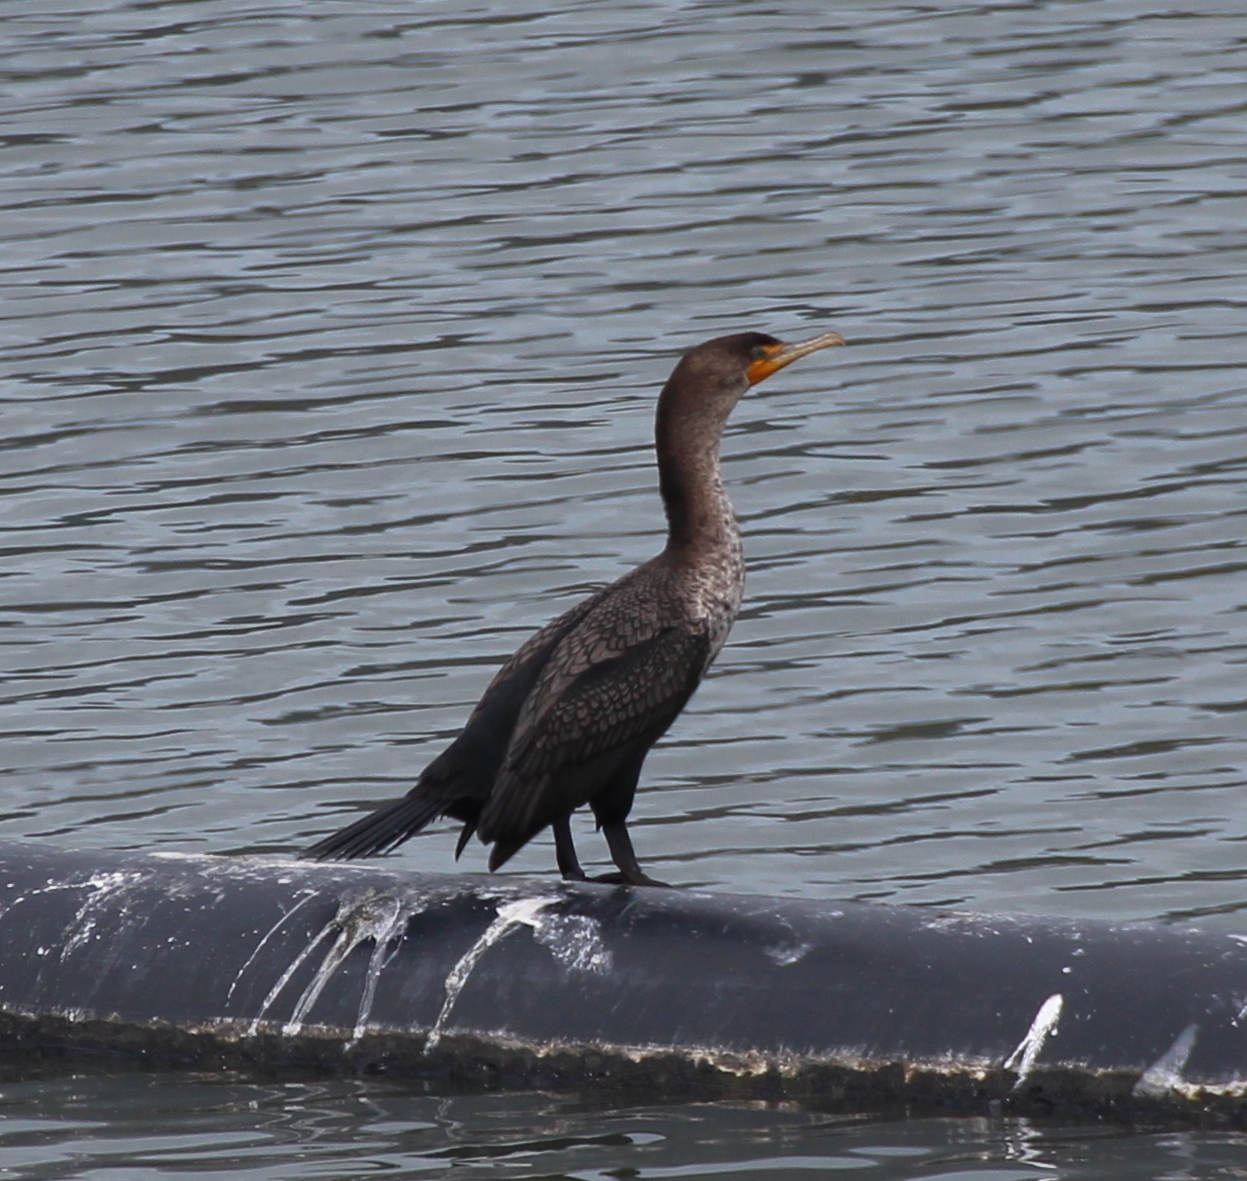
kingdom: Animalia
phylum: Chordata
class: Aves
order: Suliformes
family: Phalacrocoracidae
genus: Phalacrocorax
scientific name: Phalacrocorax auritus
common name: Double-crested cormorant
